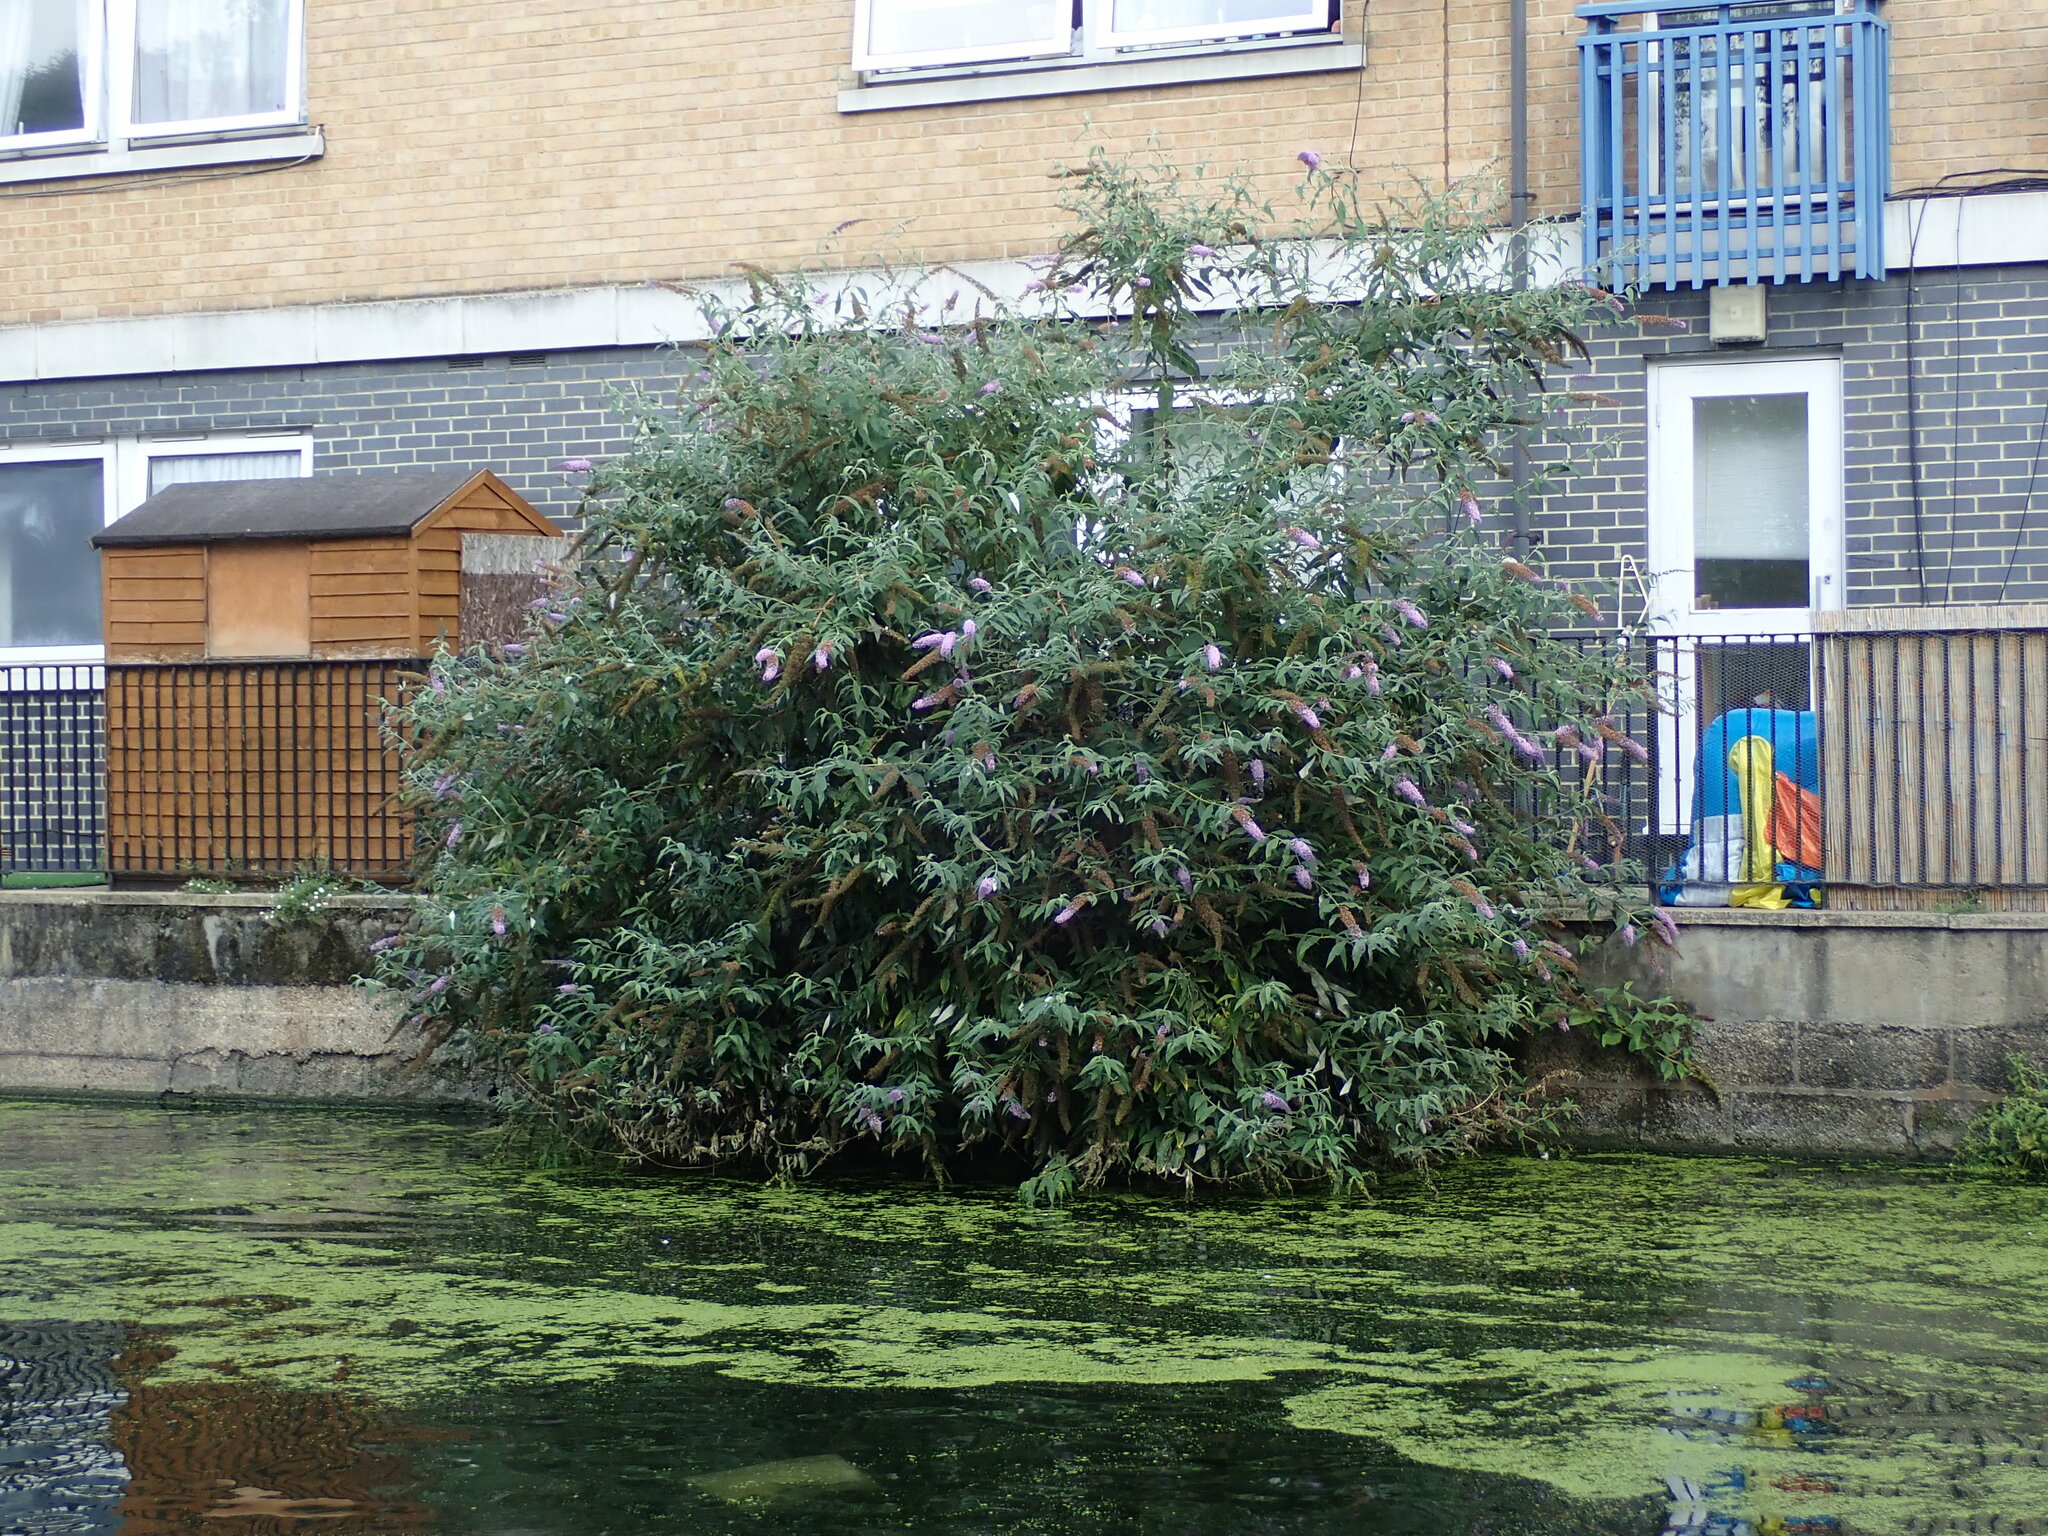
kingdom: Plantae
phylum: Tracheophyta
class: Magnoliopsida
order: Lamiales
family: Scrophulariaceae
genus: Buddleja
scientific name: Buddleja davidii
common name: Butterfly-bush
